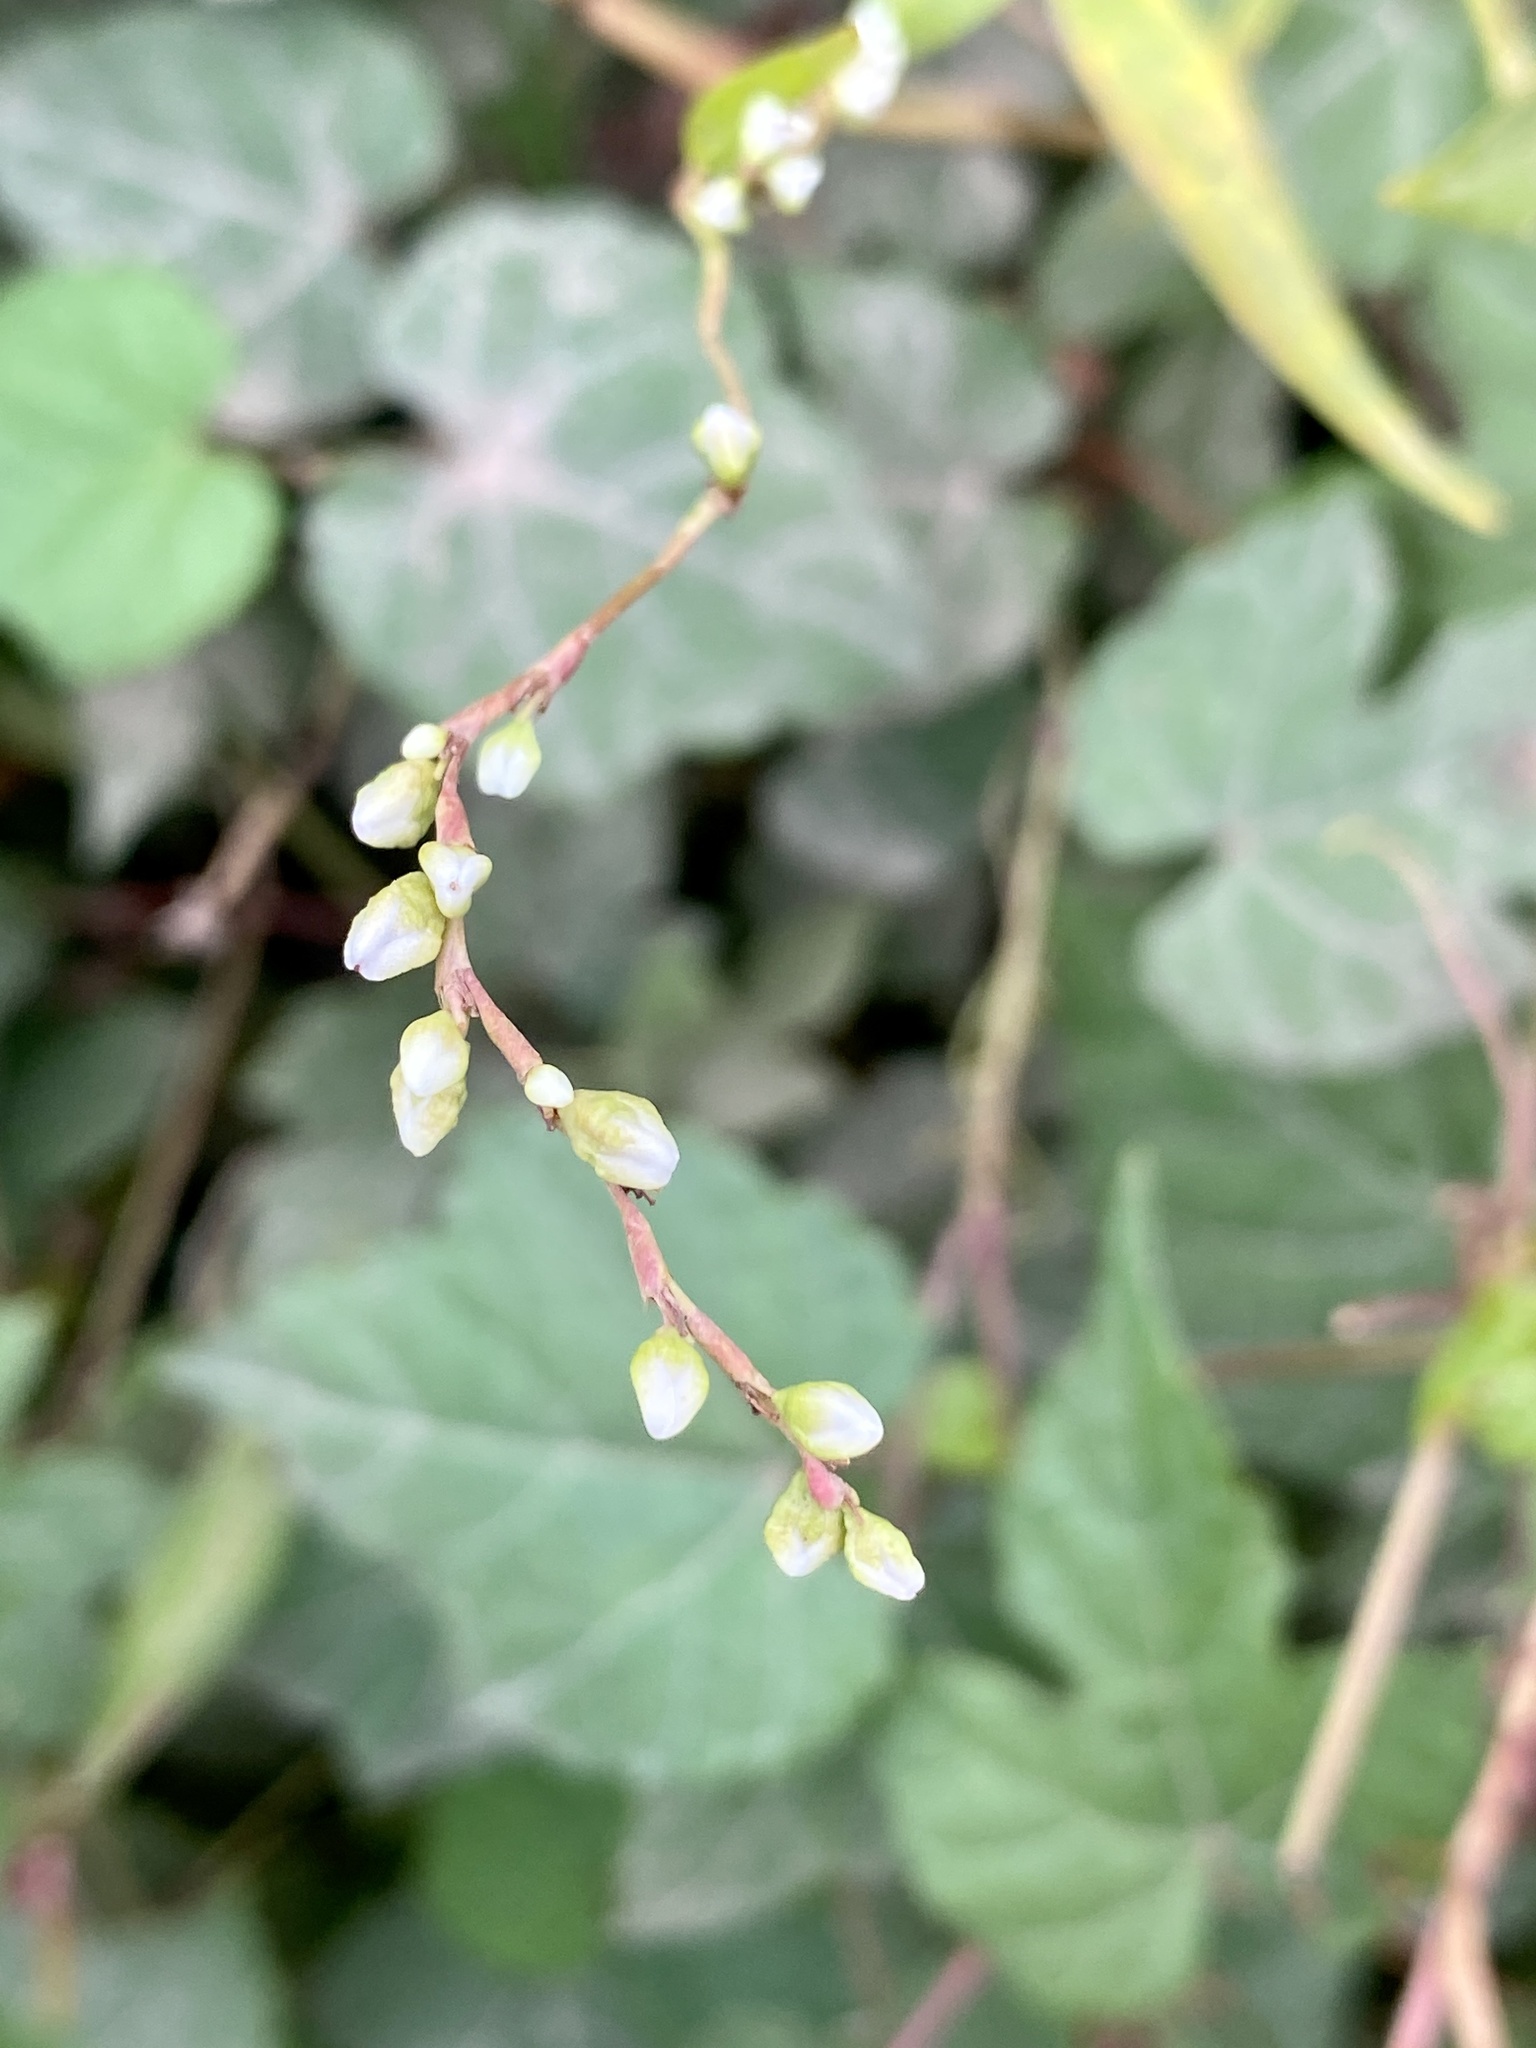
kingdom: Plantae
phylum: Tracheophyta
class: Magnoliopsida
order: Caryophyllales
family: Polygonaceae
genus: Persicaria
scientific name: Persicaria punctata
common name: Dotted smartweed
